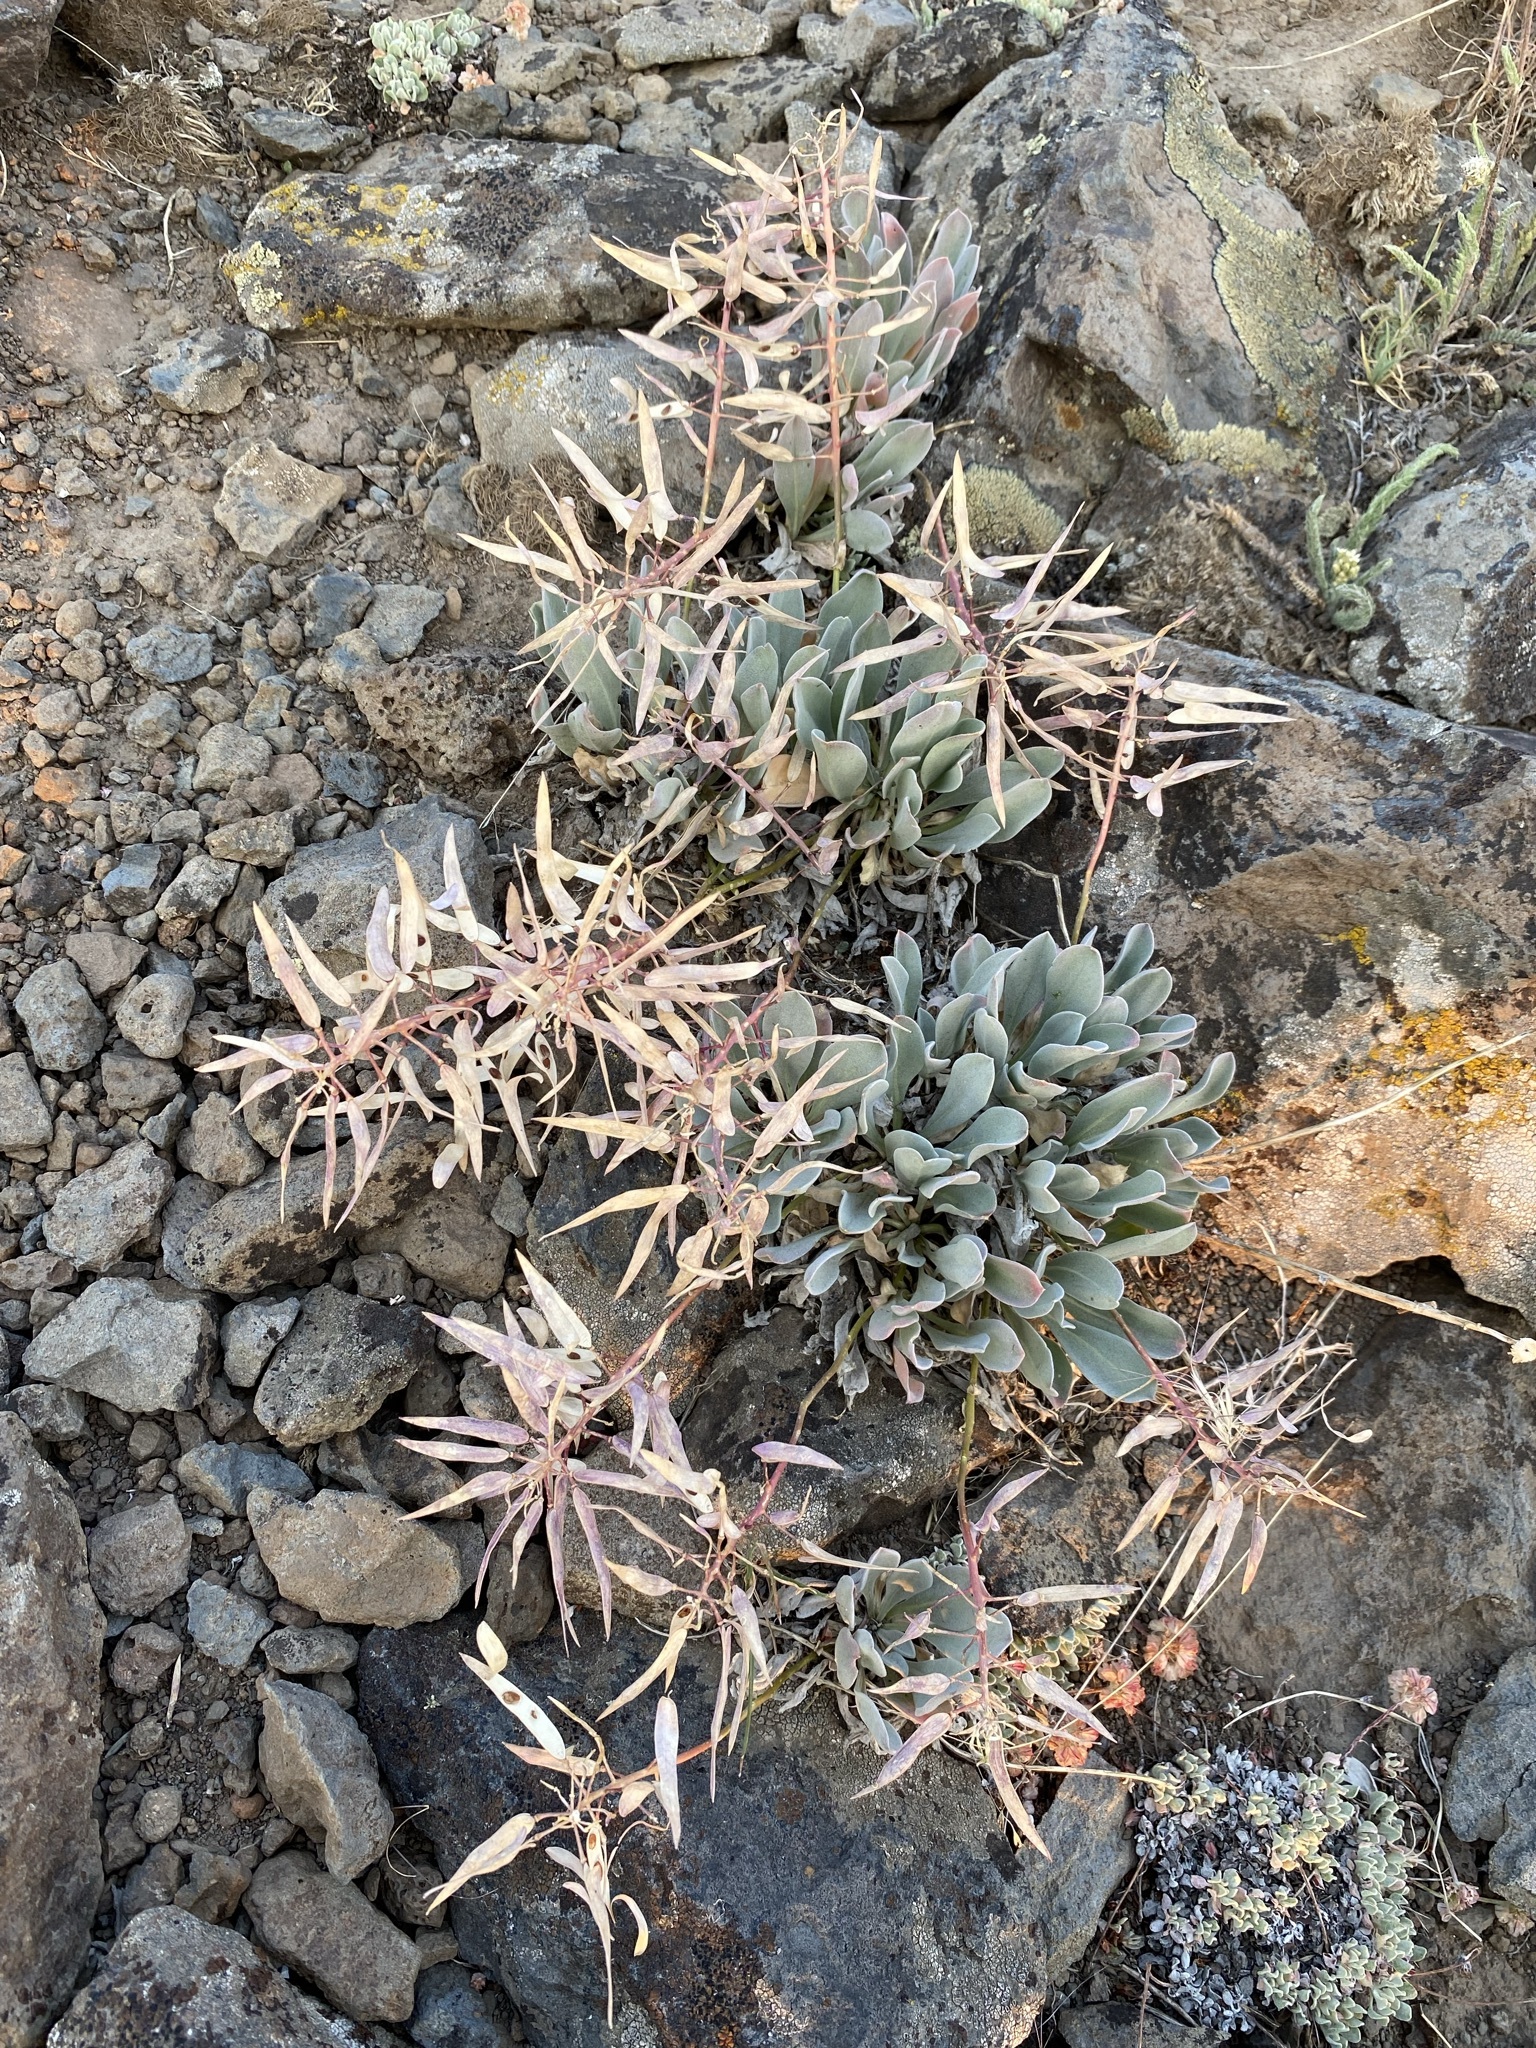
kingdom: Plantae
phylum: Tracheophyta
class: Magnoliopsida
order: Brassicales
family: Brassicaceae
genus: Phoenicaulis
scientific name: Phoenicaulis cheiranthoides
